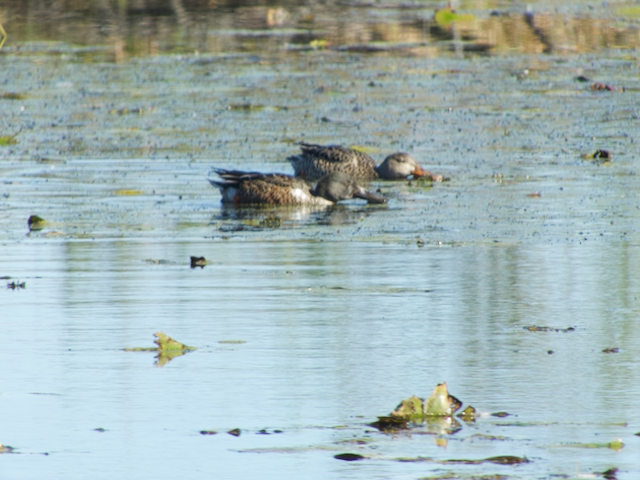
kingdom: Animalia
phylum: Chordata
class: Aves
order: Anseriformes
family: Anatidae
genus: Spatula
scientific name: Spatula clypeata
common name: Northern shoveler
